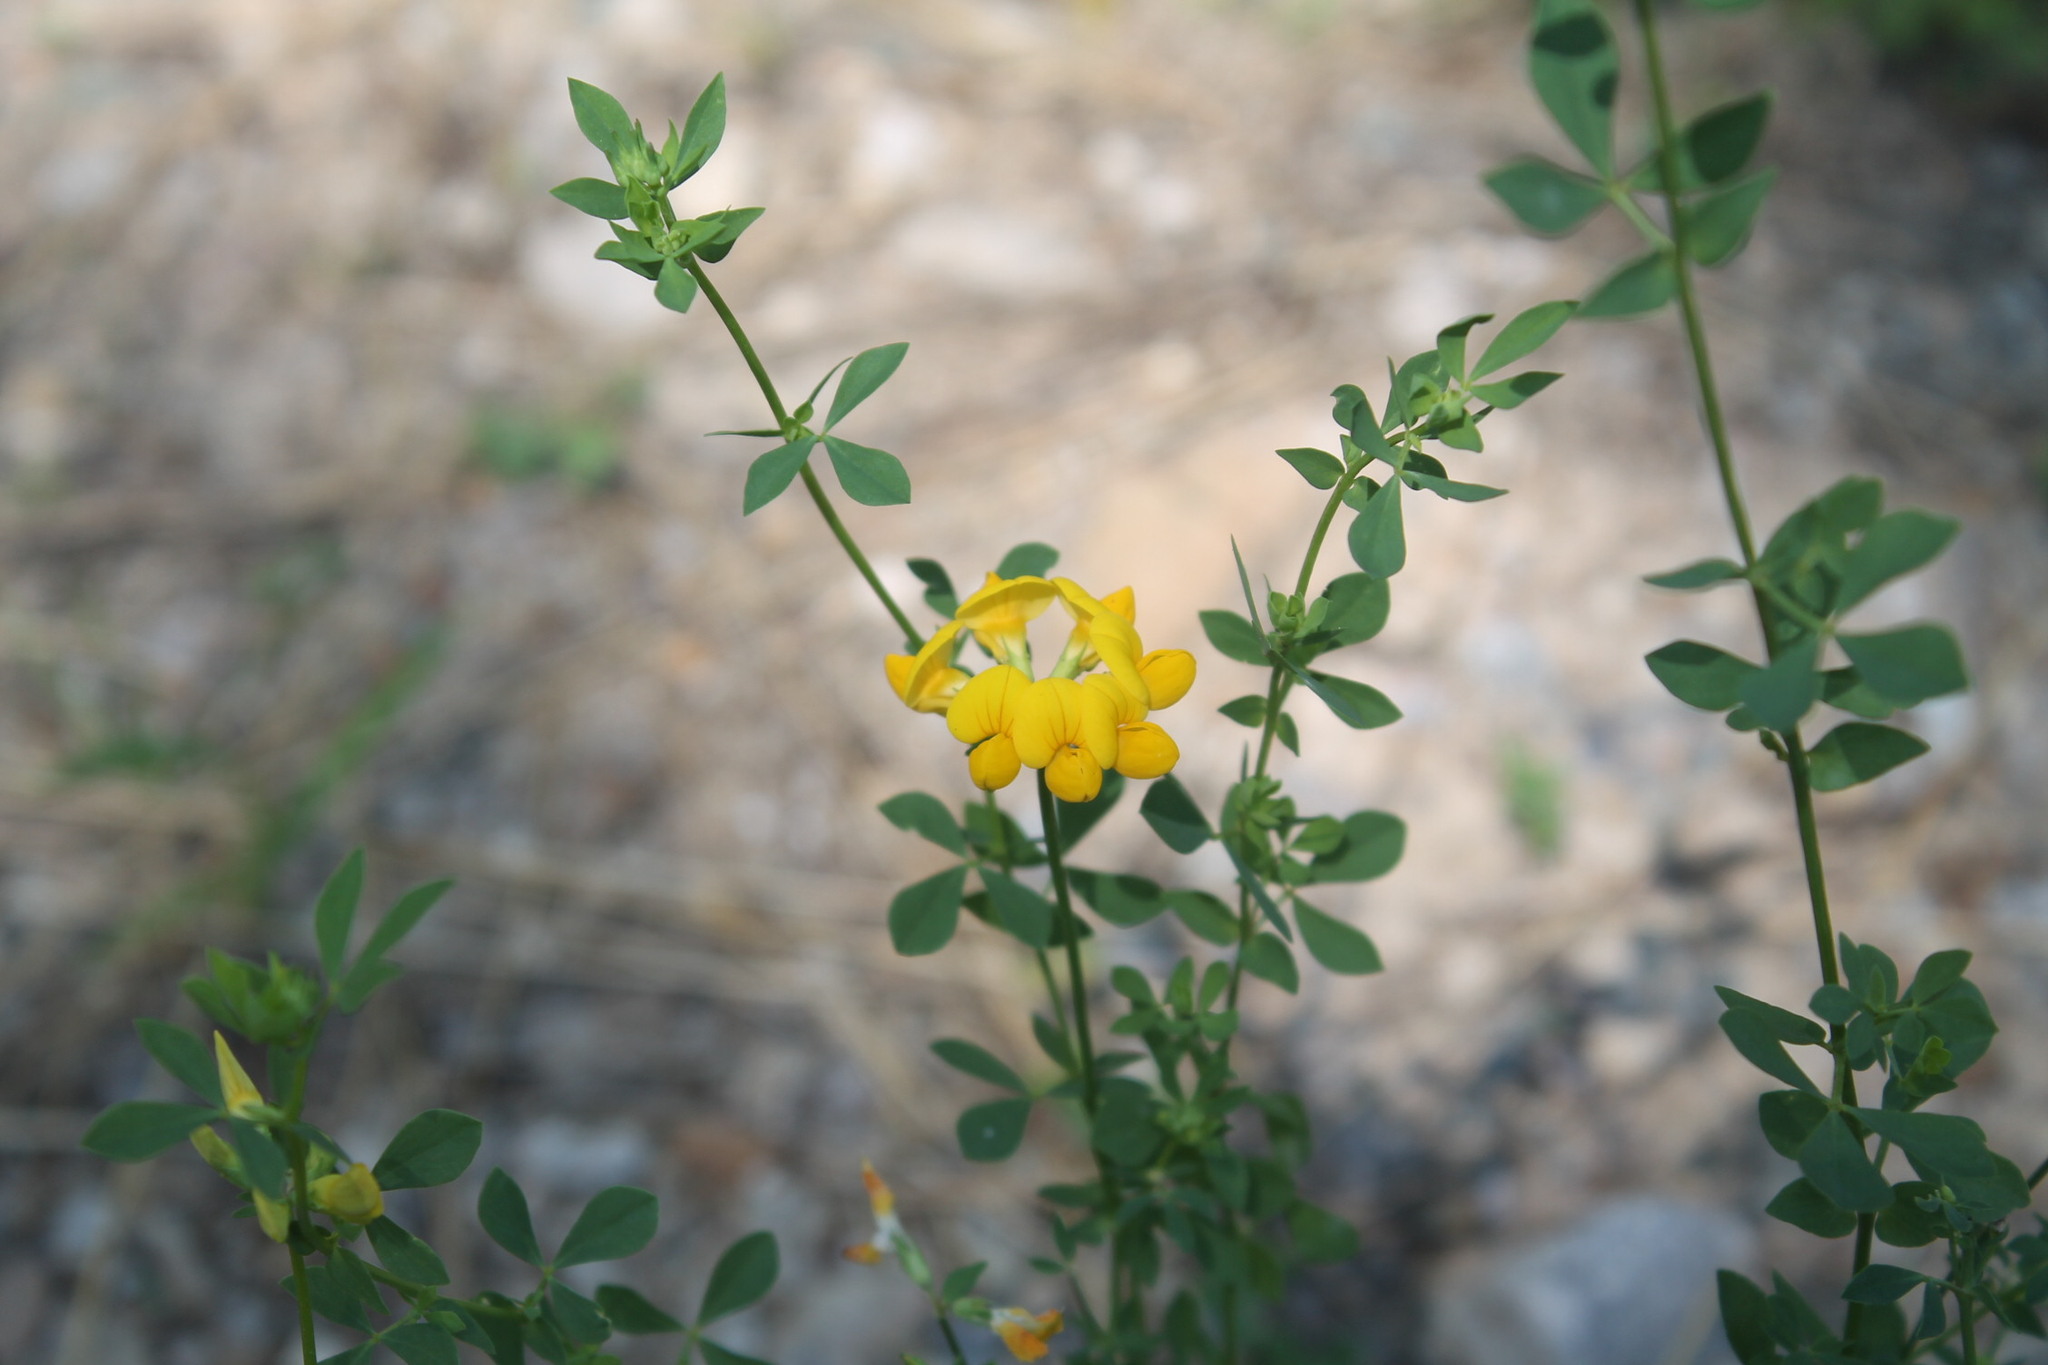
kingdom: Plantae
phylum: Tracheophyta
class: Magnoliopsida
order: Fabales
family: Fabaceae
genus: Lotus
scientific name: Lotus corniculatus
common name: Common bird's-foot-trefoil
